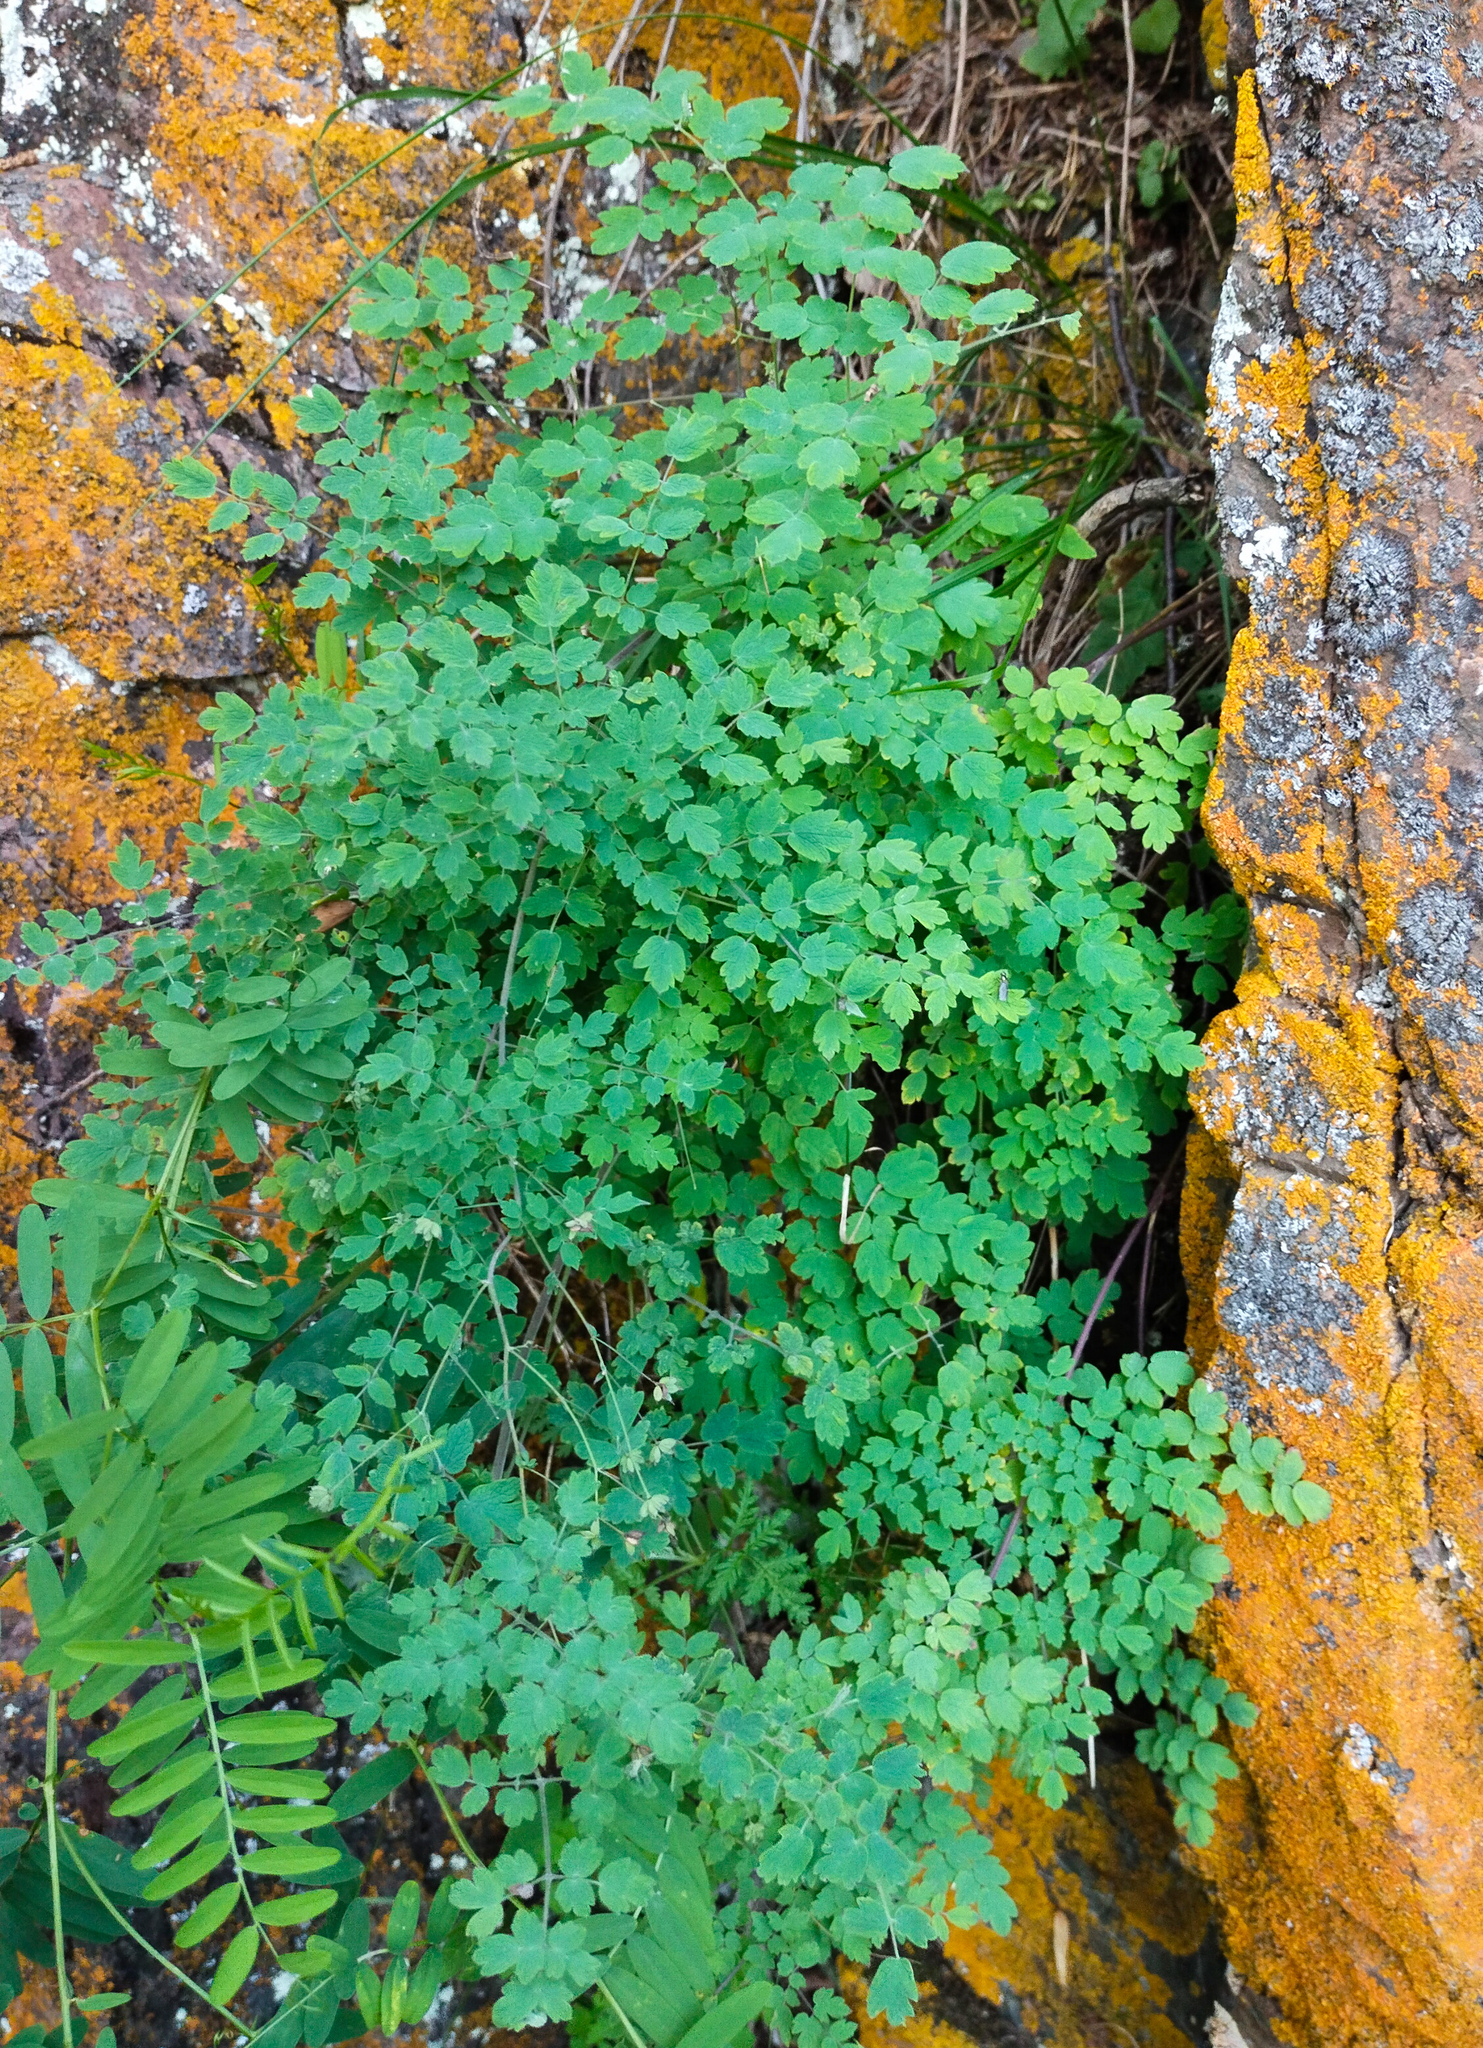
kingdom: Plantae
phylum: Tracheophyta
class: Magnoliopsida
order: Ranunculales
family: Ranunculaceae
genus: Thalictrum
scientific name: Thalictrum foetidum
